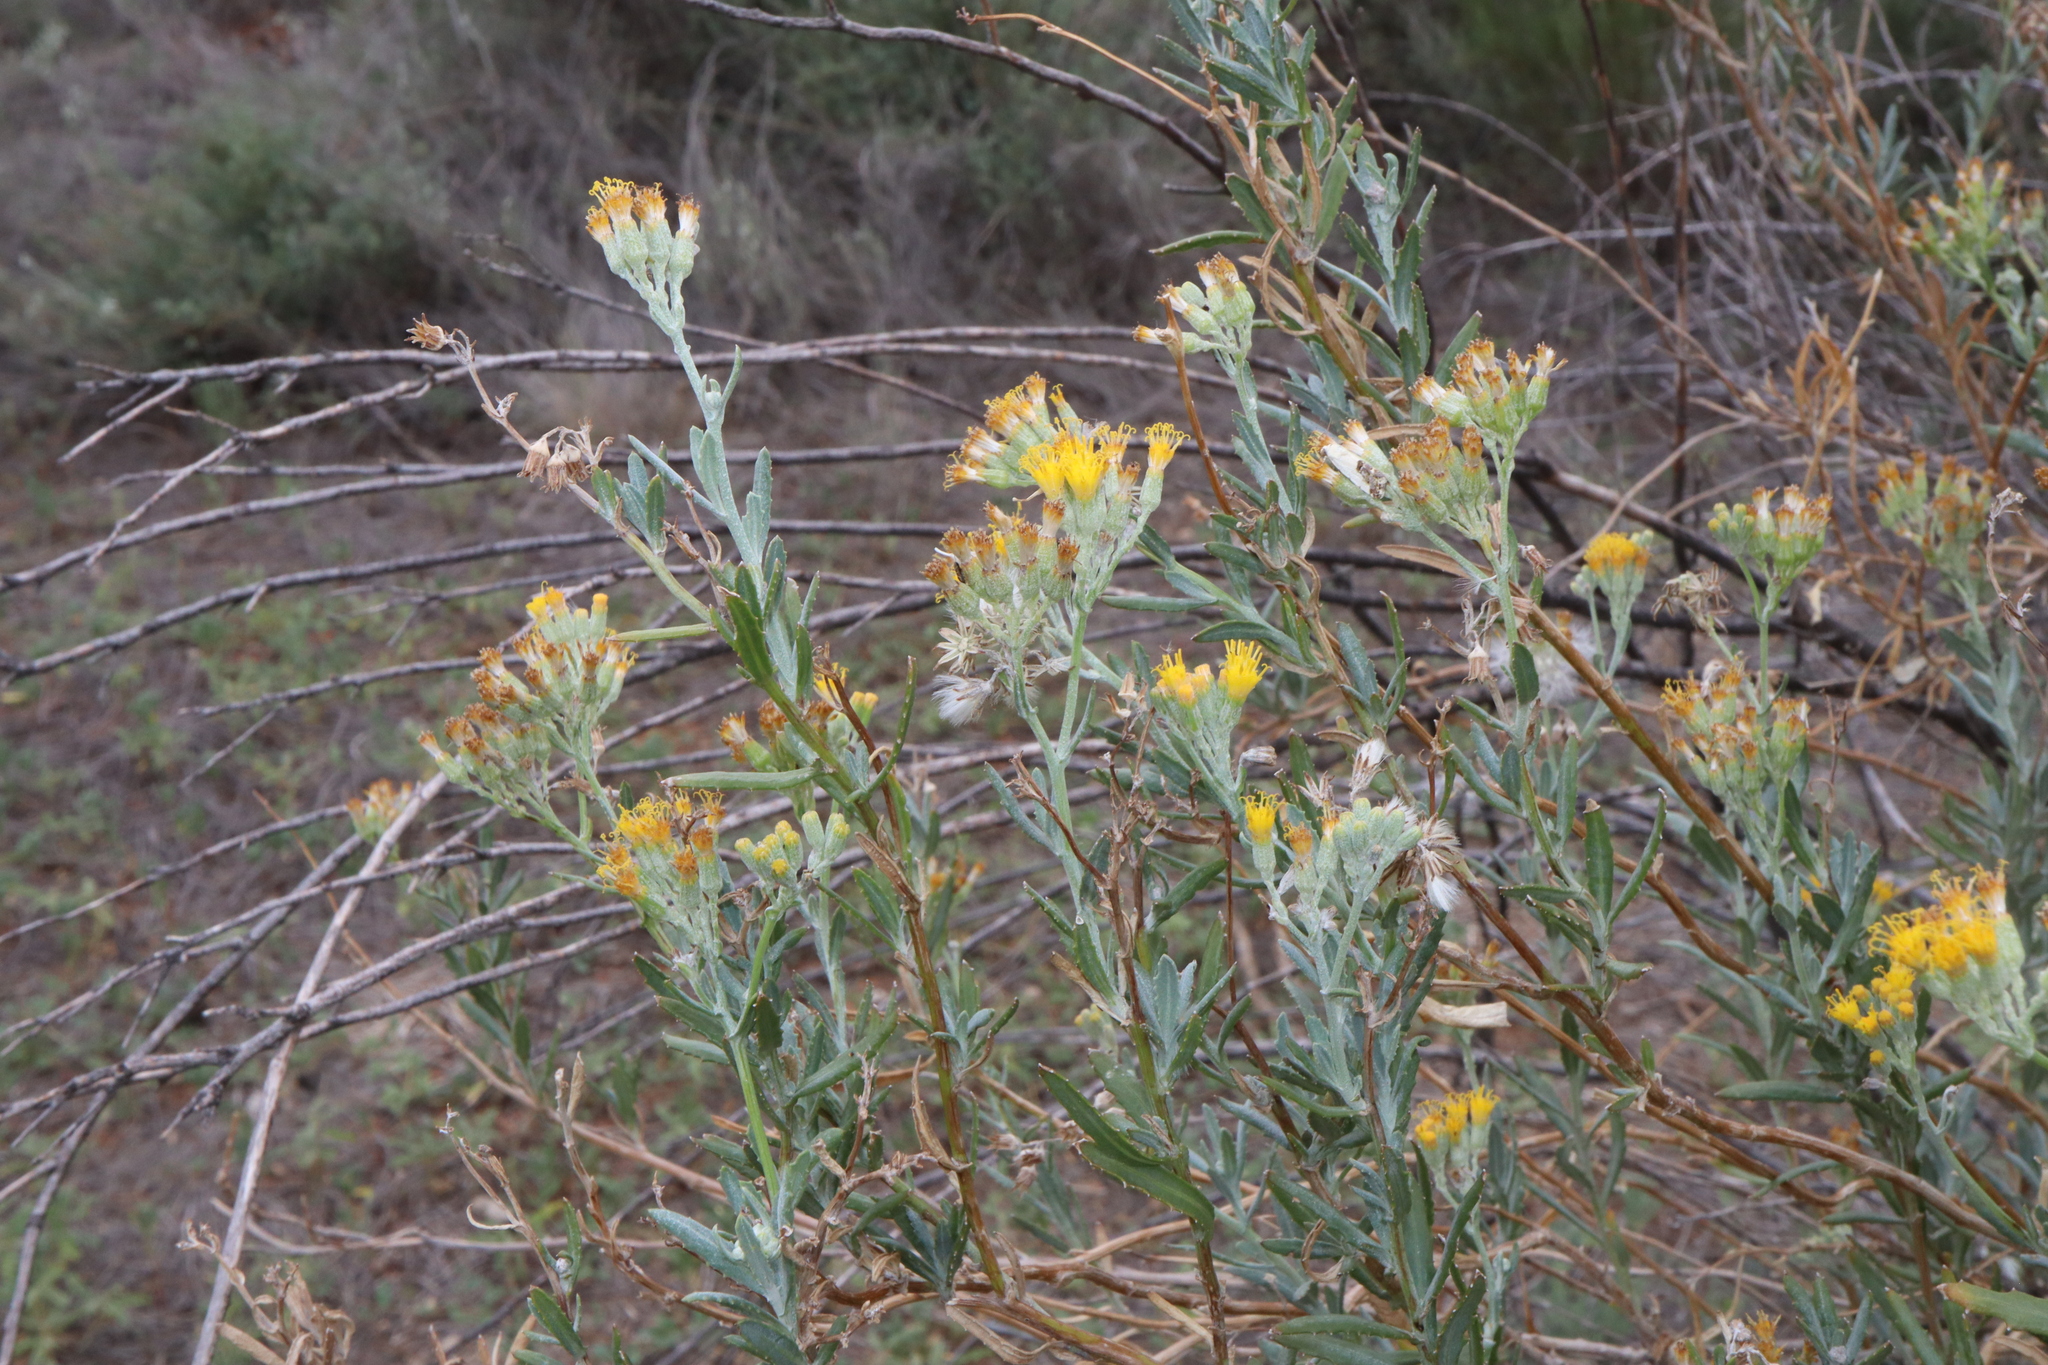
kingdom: Plantae
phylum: Tracheophyta
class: Magnoliopsida
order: Asterales
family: Asteraceae
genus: Senecio
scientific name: Senecio lanibracteus
